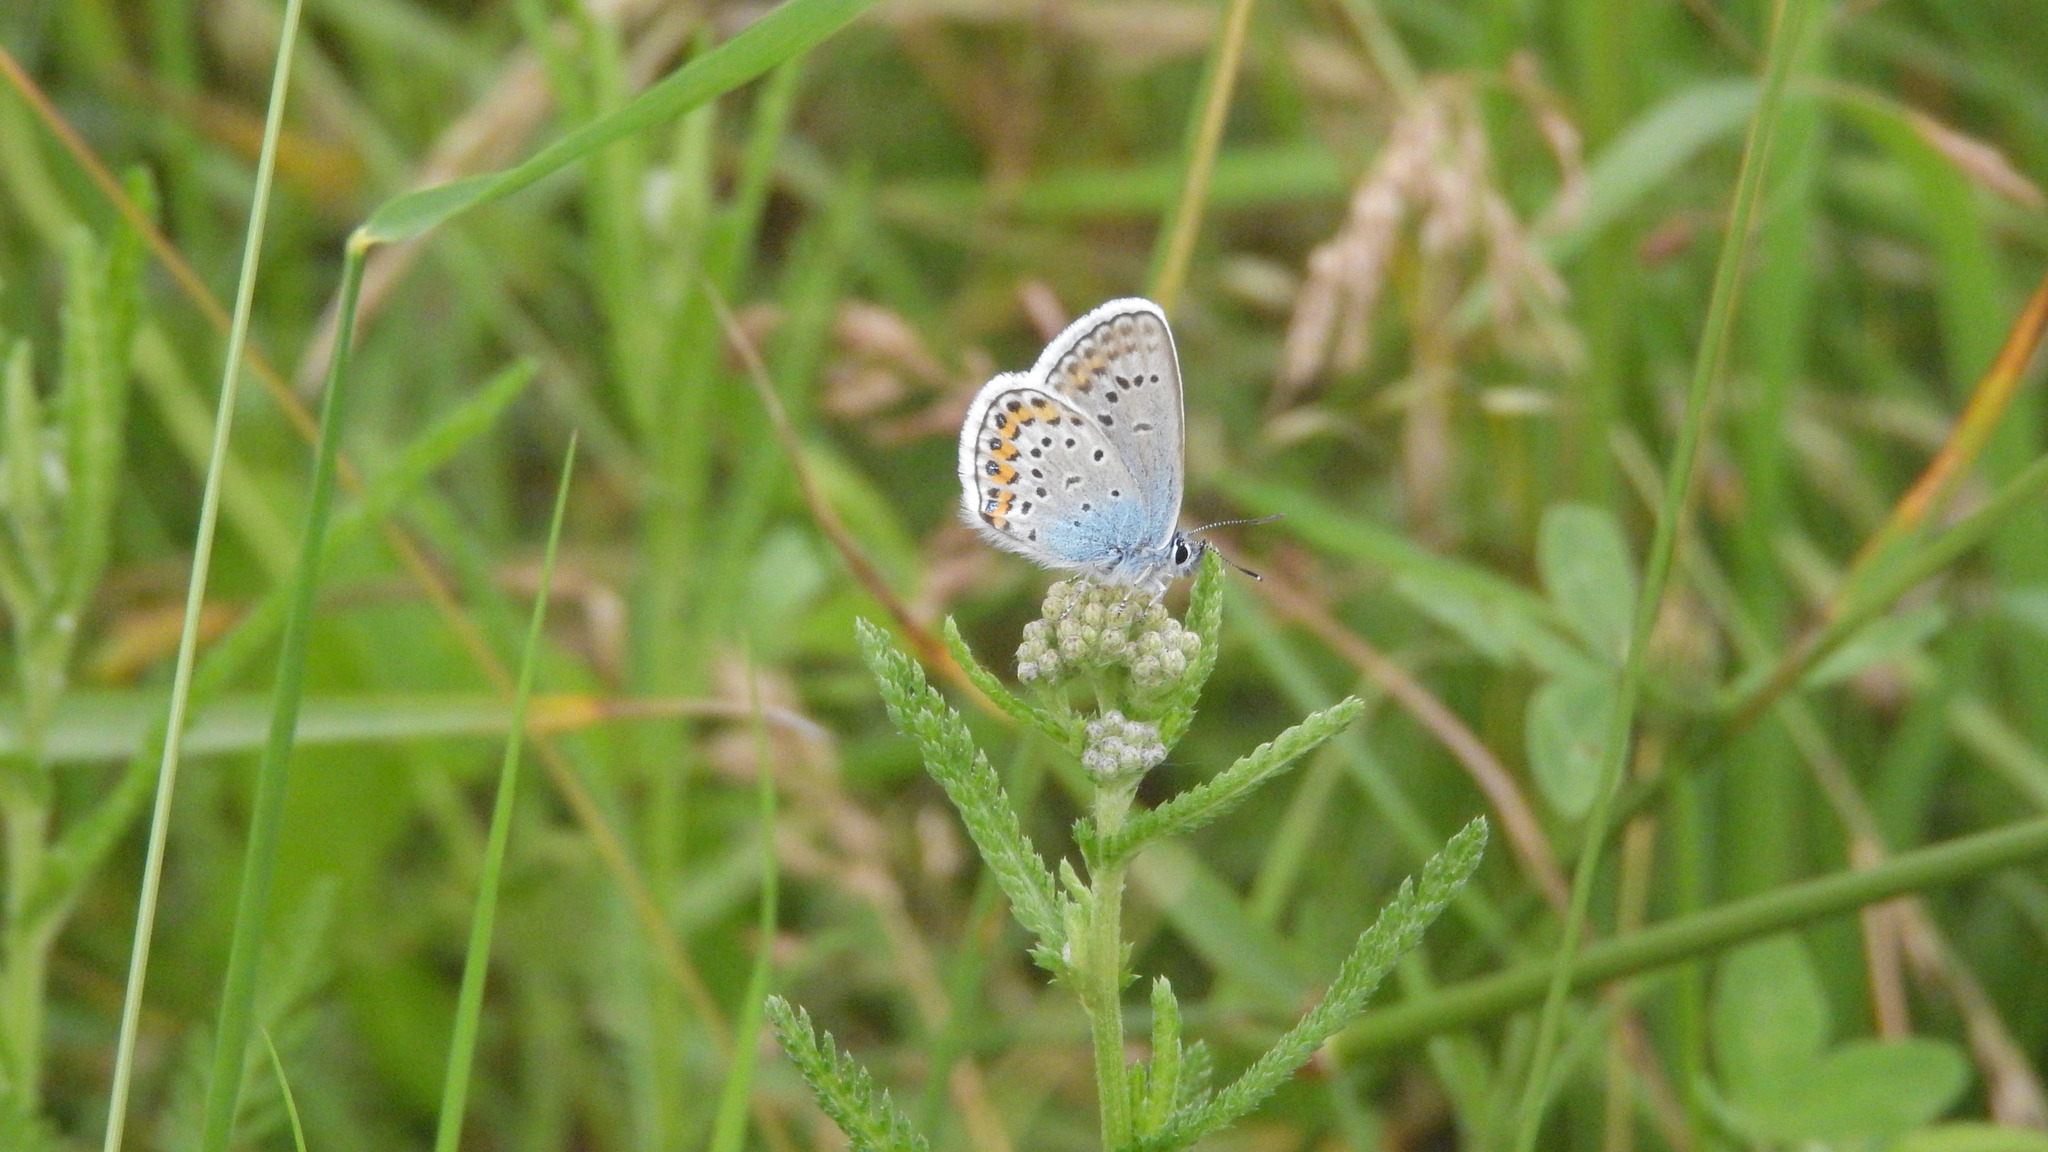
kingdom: Animalia
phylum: Arthropoda
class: Insecta
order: Lepidoptera
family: Lycaenidae
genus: Plebejus
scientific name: Plebejus argus
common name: Silver-studded blue
